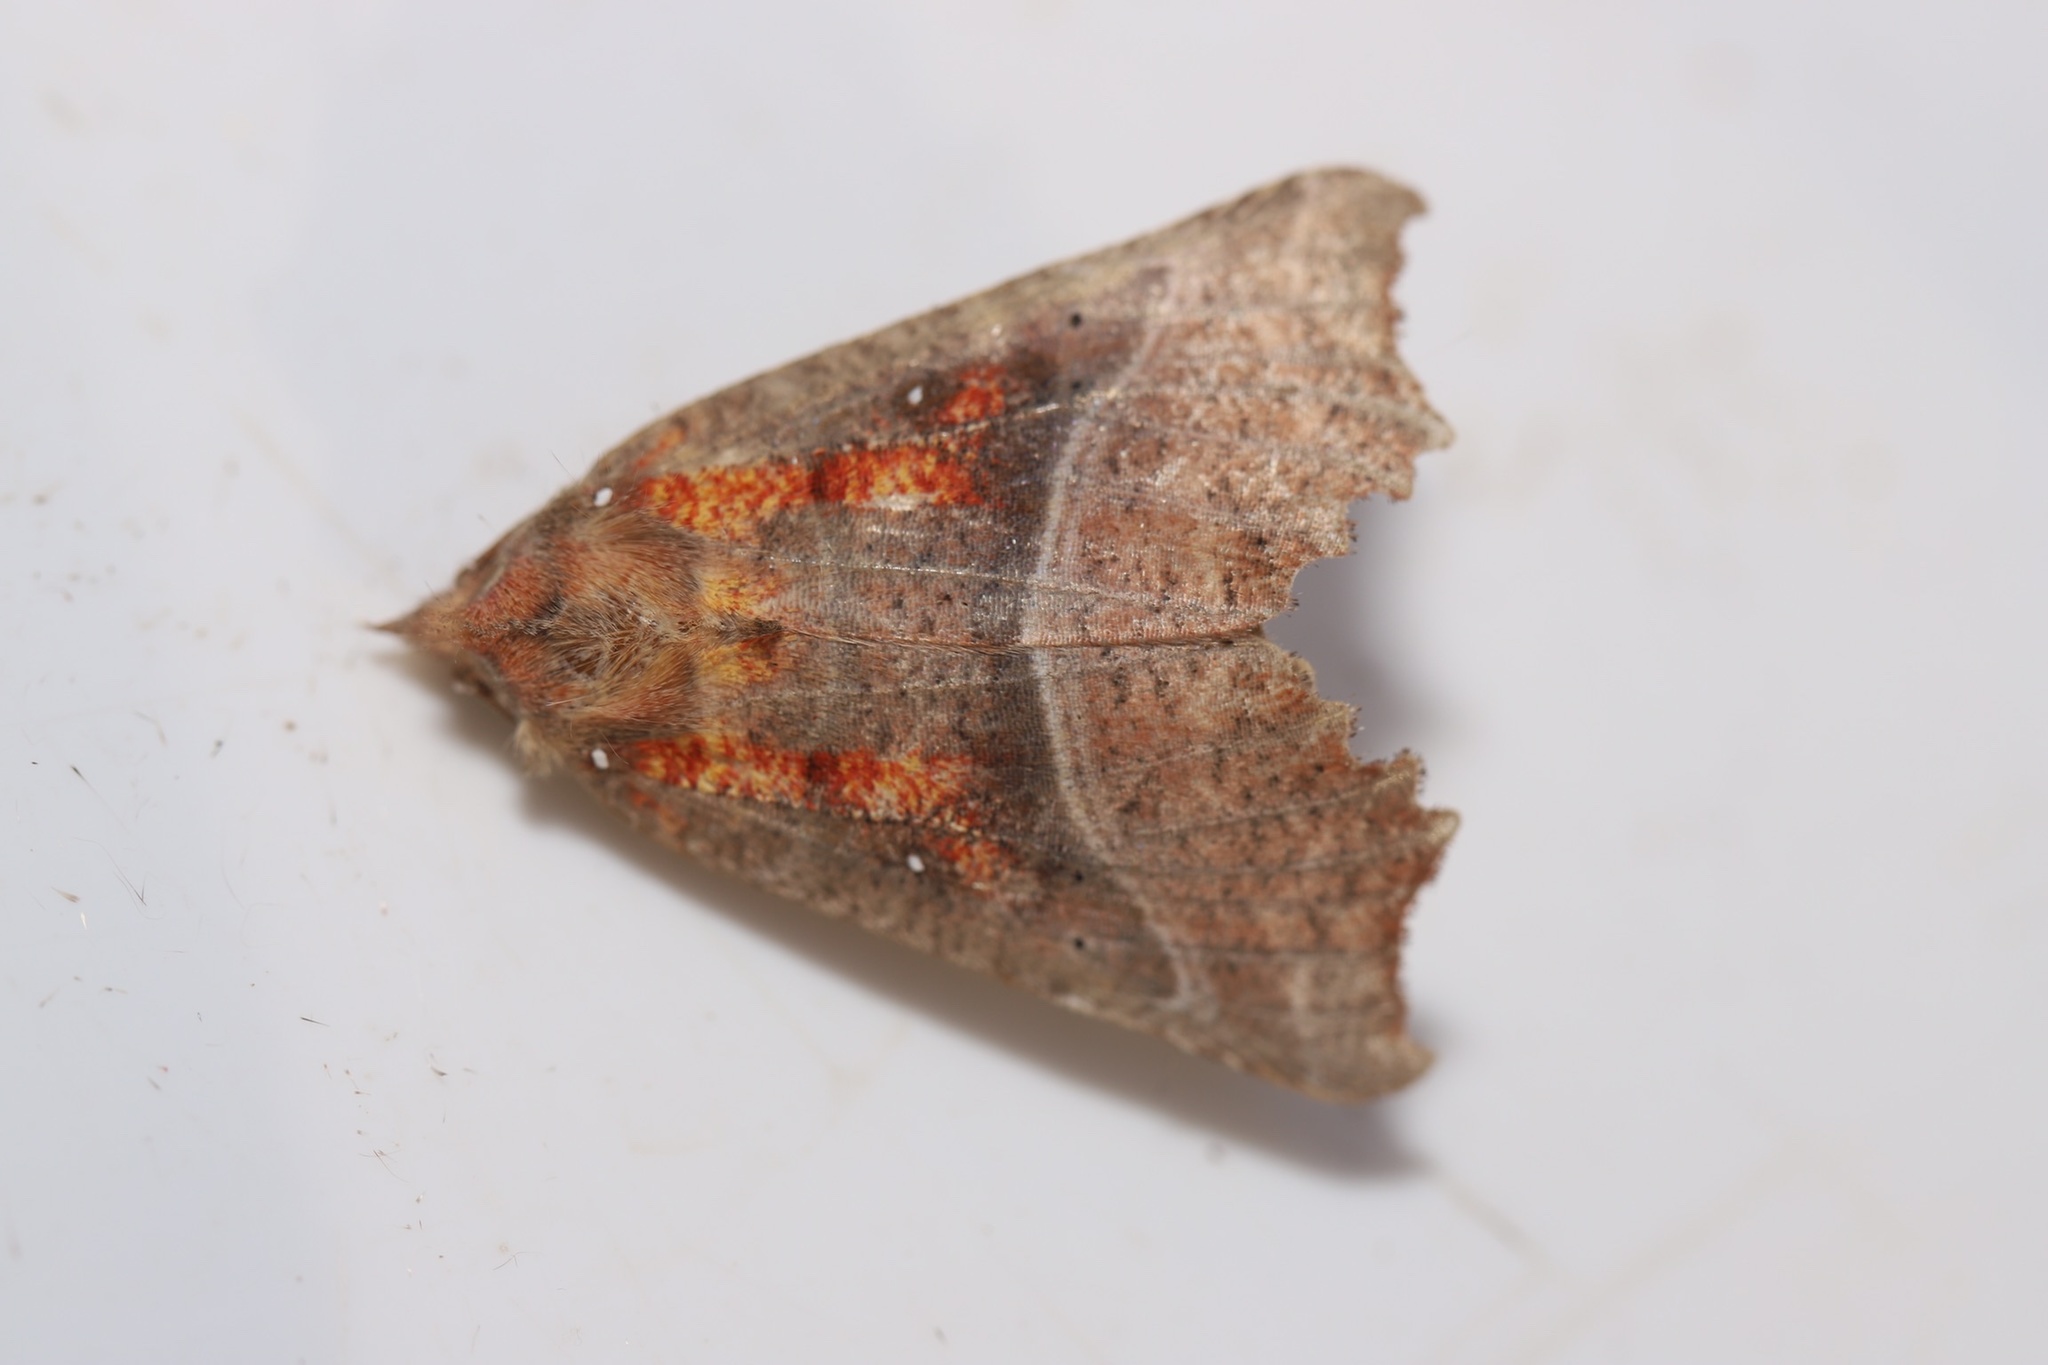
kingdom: Animalia
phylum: Arthropoda
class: Insecta
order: Lepidoptera
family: Erebidae
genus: Scoliopteryx
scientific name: Scoliopteryx libatrix
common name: Herald
